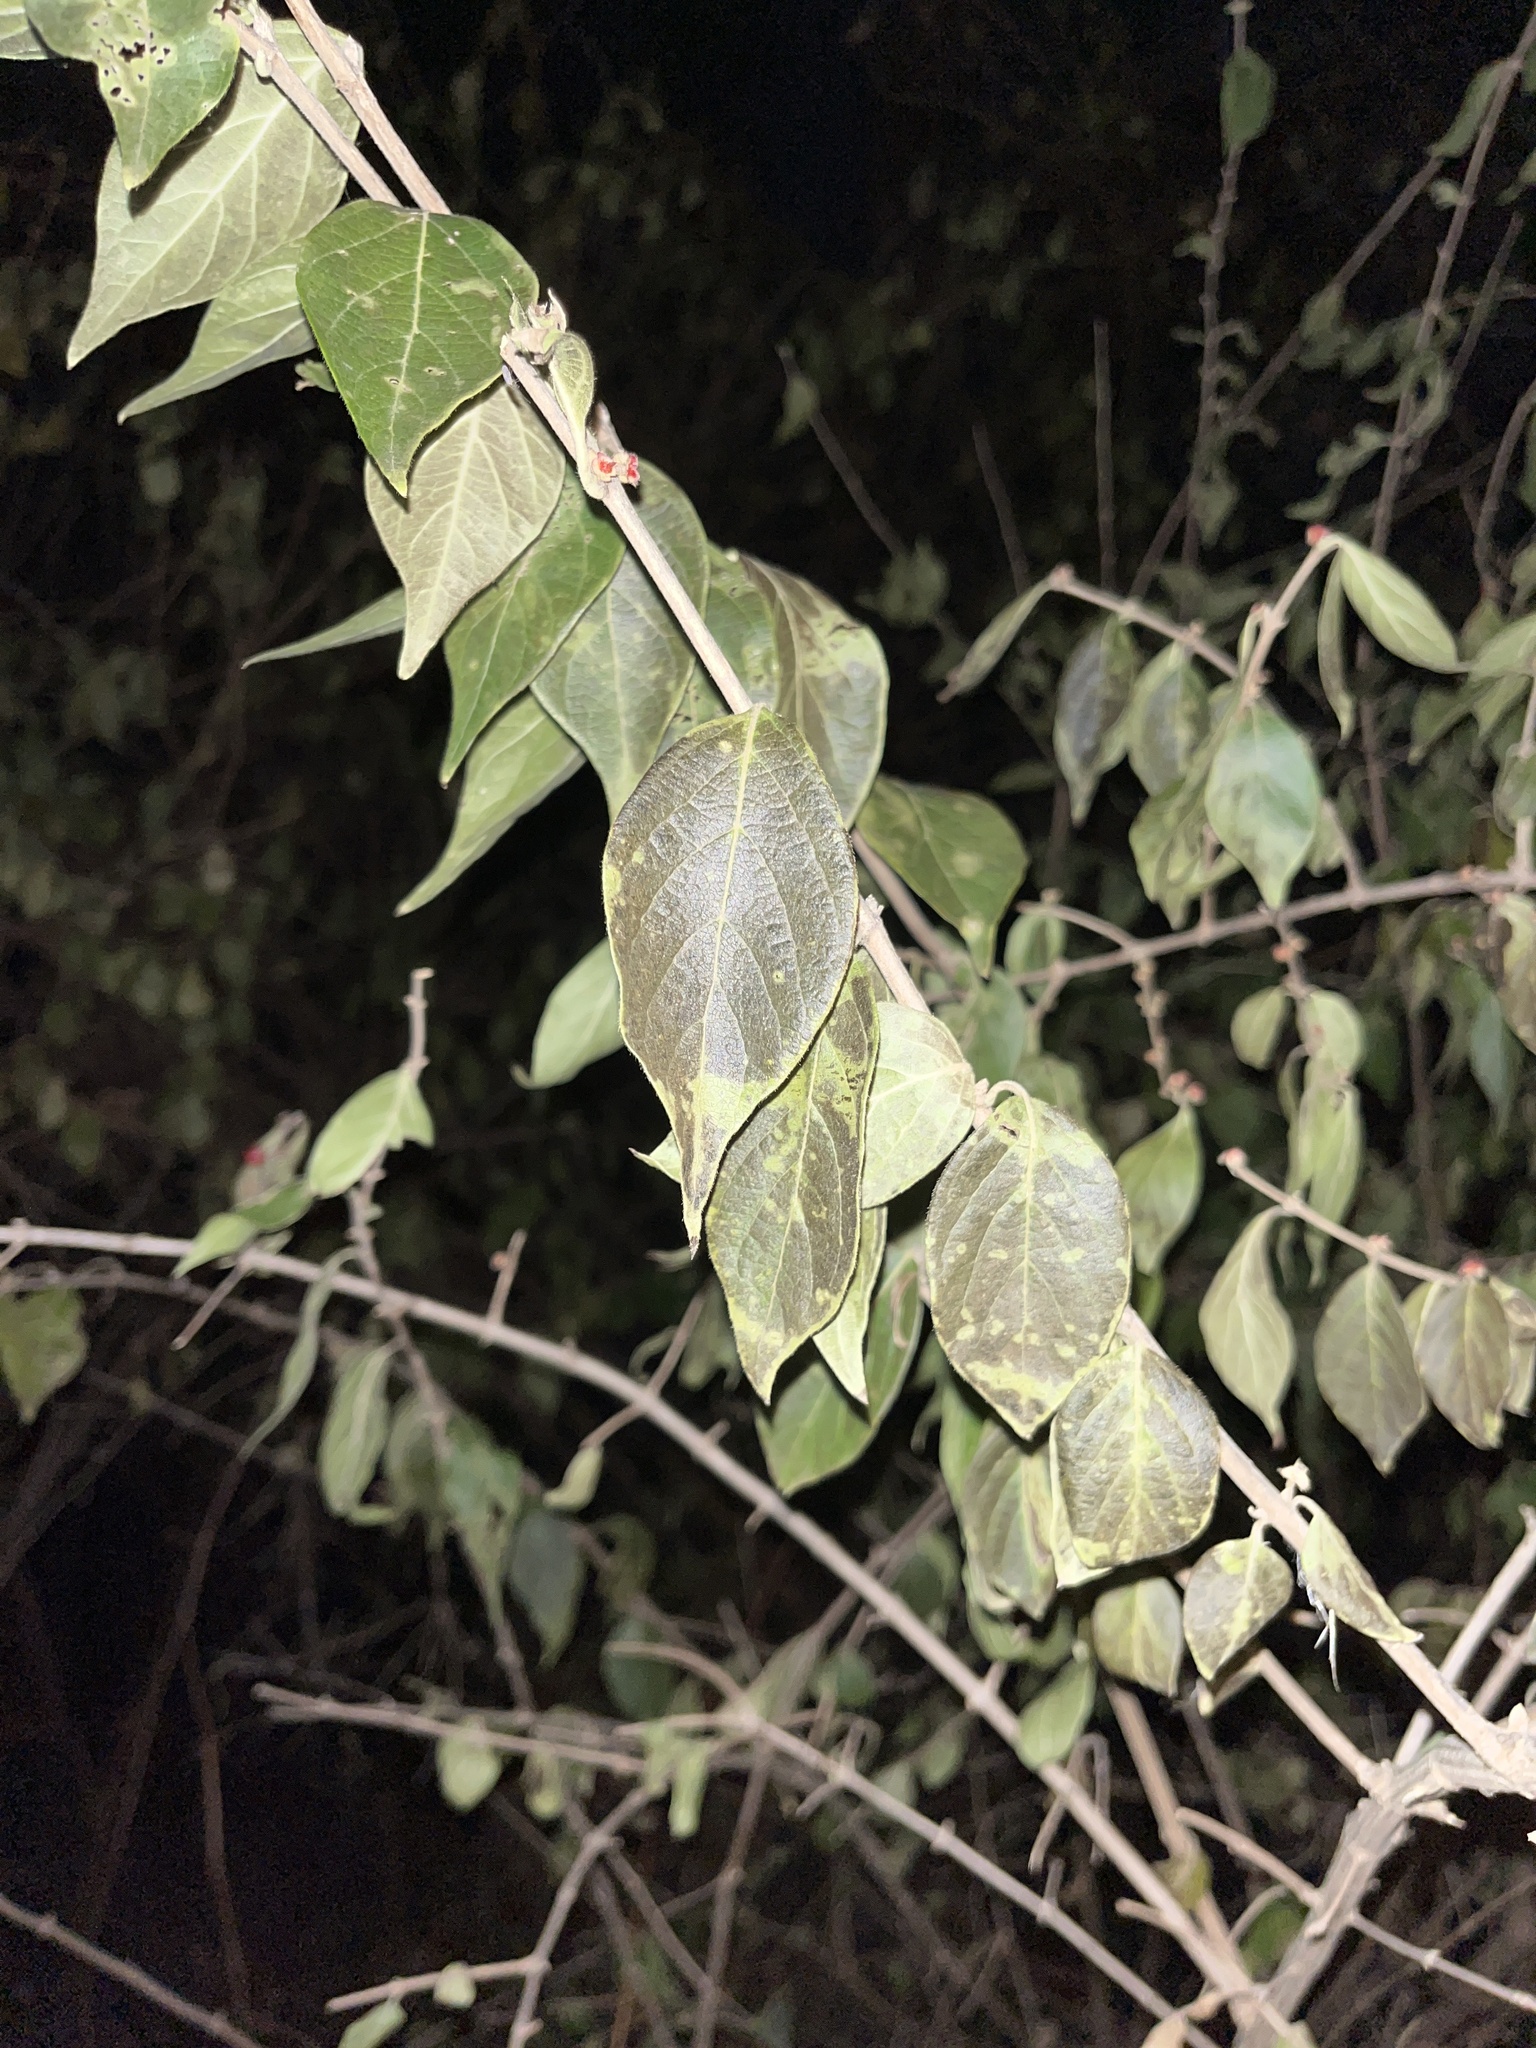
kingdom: Plantae
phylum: Tracheophyta
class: Magnoliopsida
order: Dipsacales
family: Caprifoliaceae
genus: Lonicera
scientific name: Lonicera maackii
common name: Amur honeysuckle
